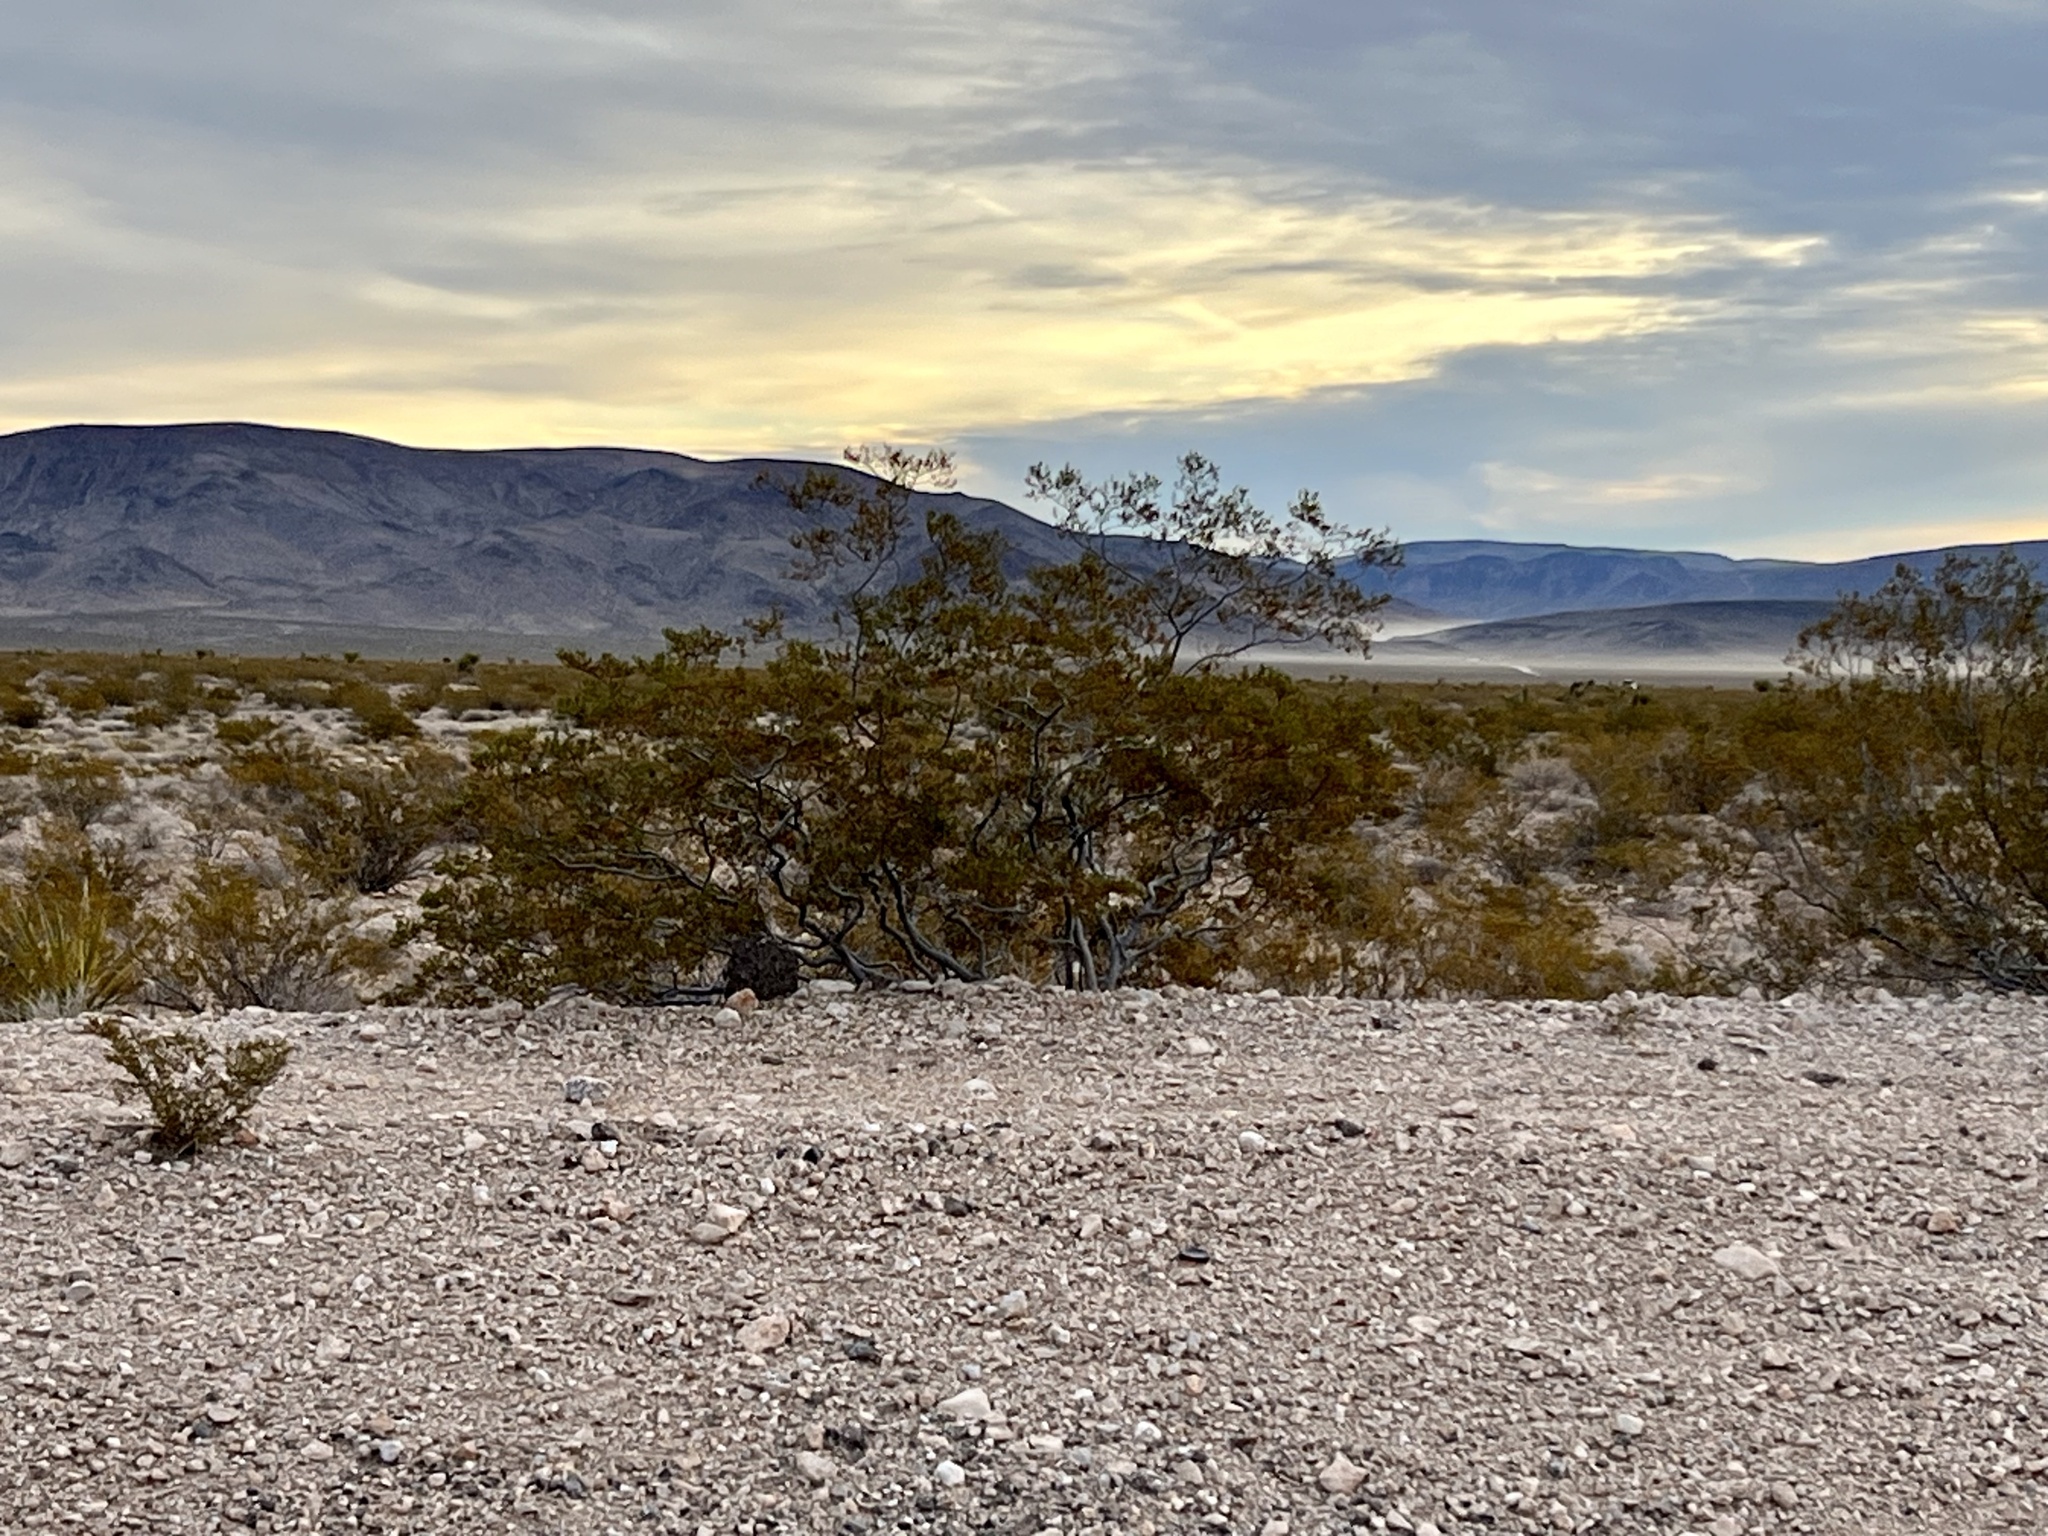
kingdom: Plantae
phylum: Tracheophyta
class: Magnoliopsida
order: Zygophyllales
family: Zygophyllaceae
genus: Larrea
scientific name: Larrea tridentata
